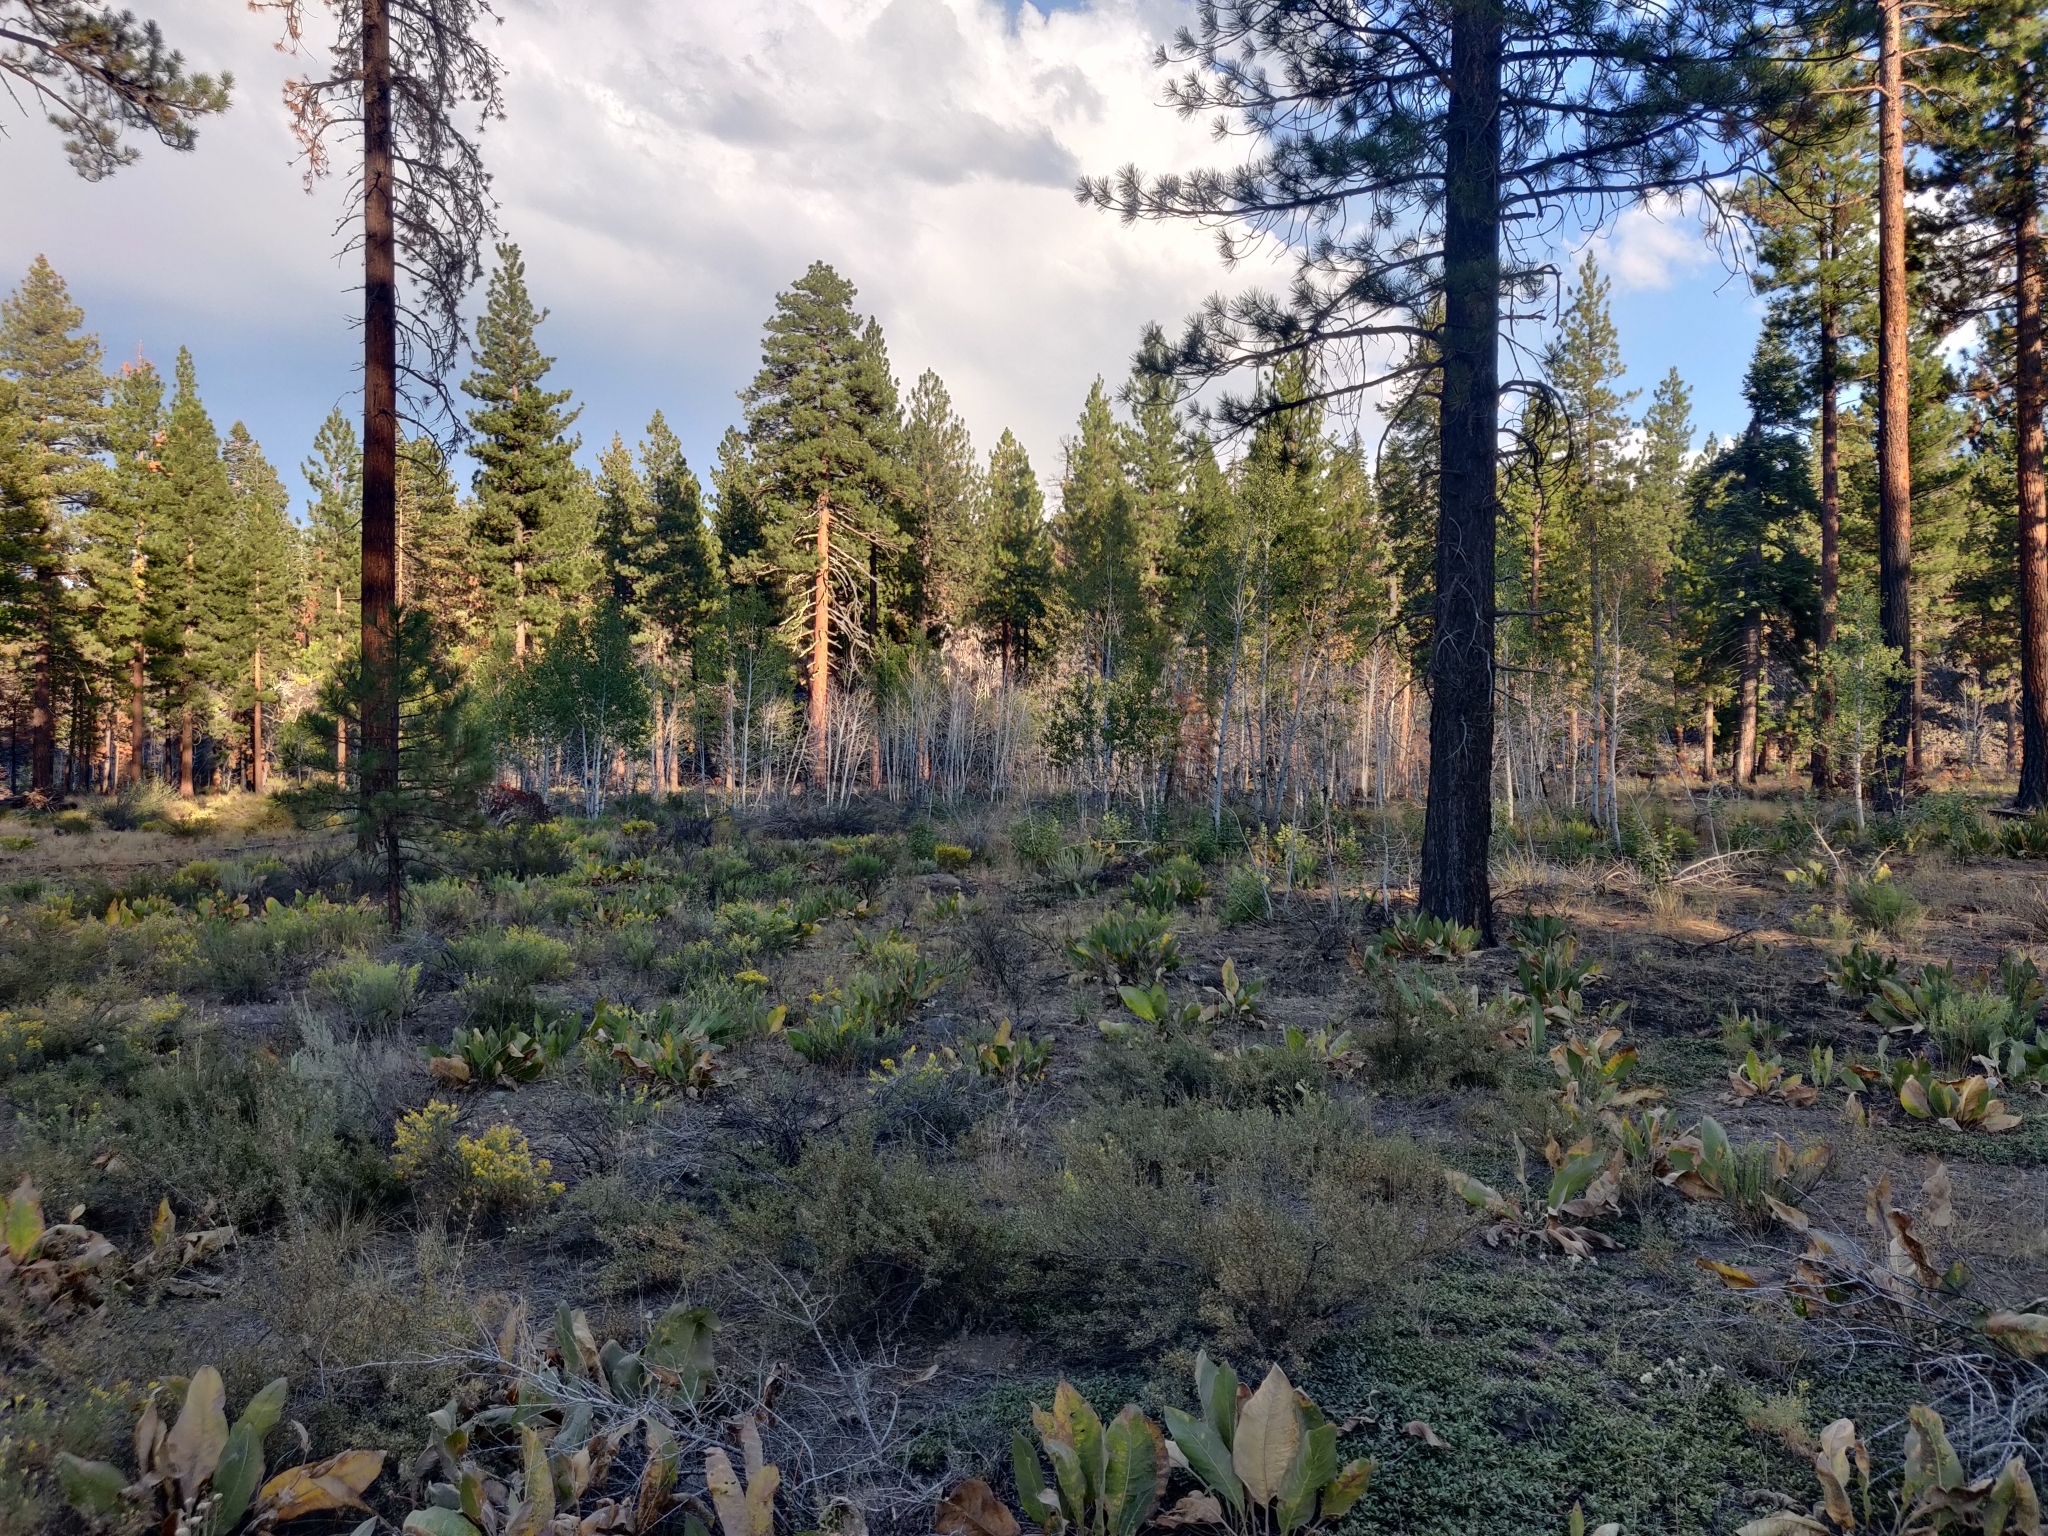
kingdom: Plantae
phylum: Tracheophyta
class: Magnoliopsida
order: Malpighiales
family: Salicaceae
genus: Populus
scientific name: Populus tremuloides
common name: Quaking aspen
